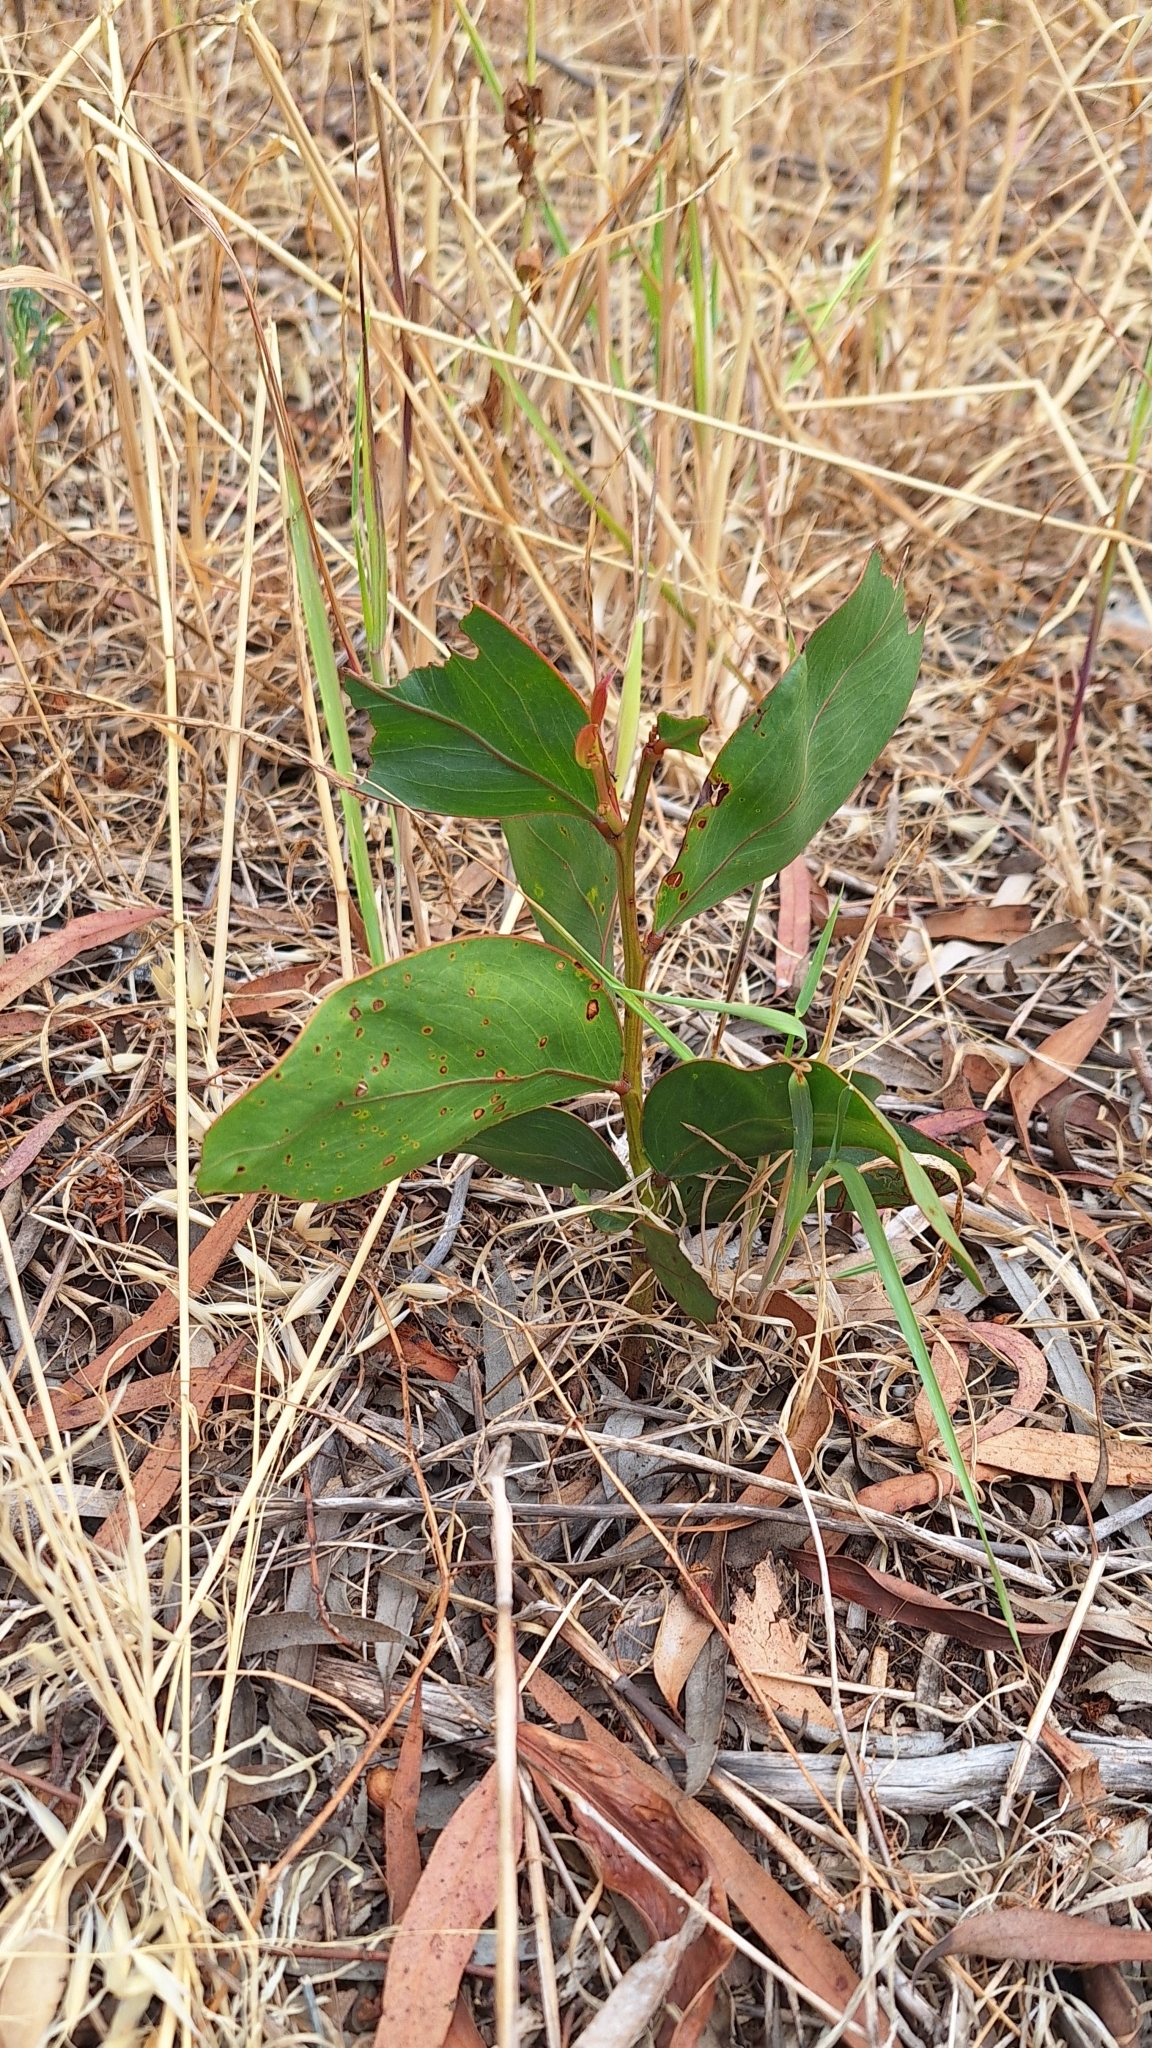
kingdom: Plantae
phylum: Tracheophyta
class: Magnoliopsida
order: Fabales
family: Fabaceae
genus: Acacia
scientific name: Acacia pycnantha
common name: Golden wattle
